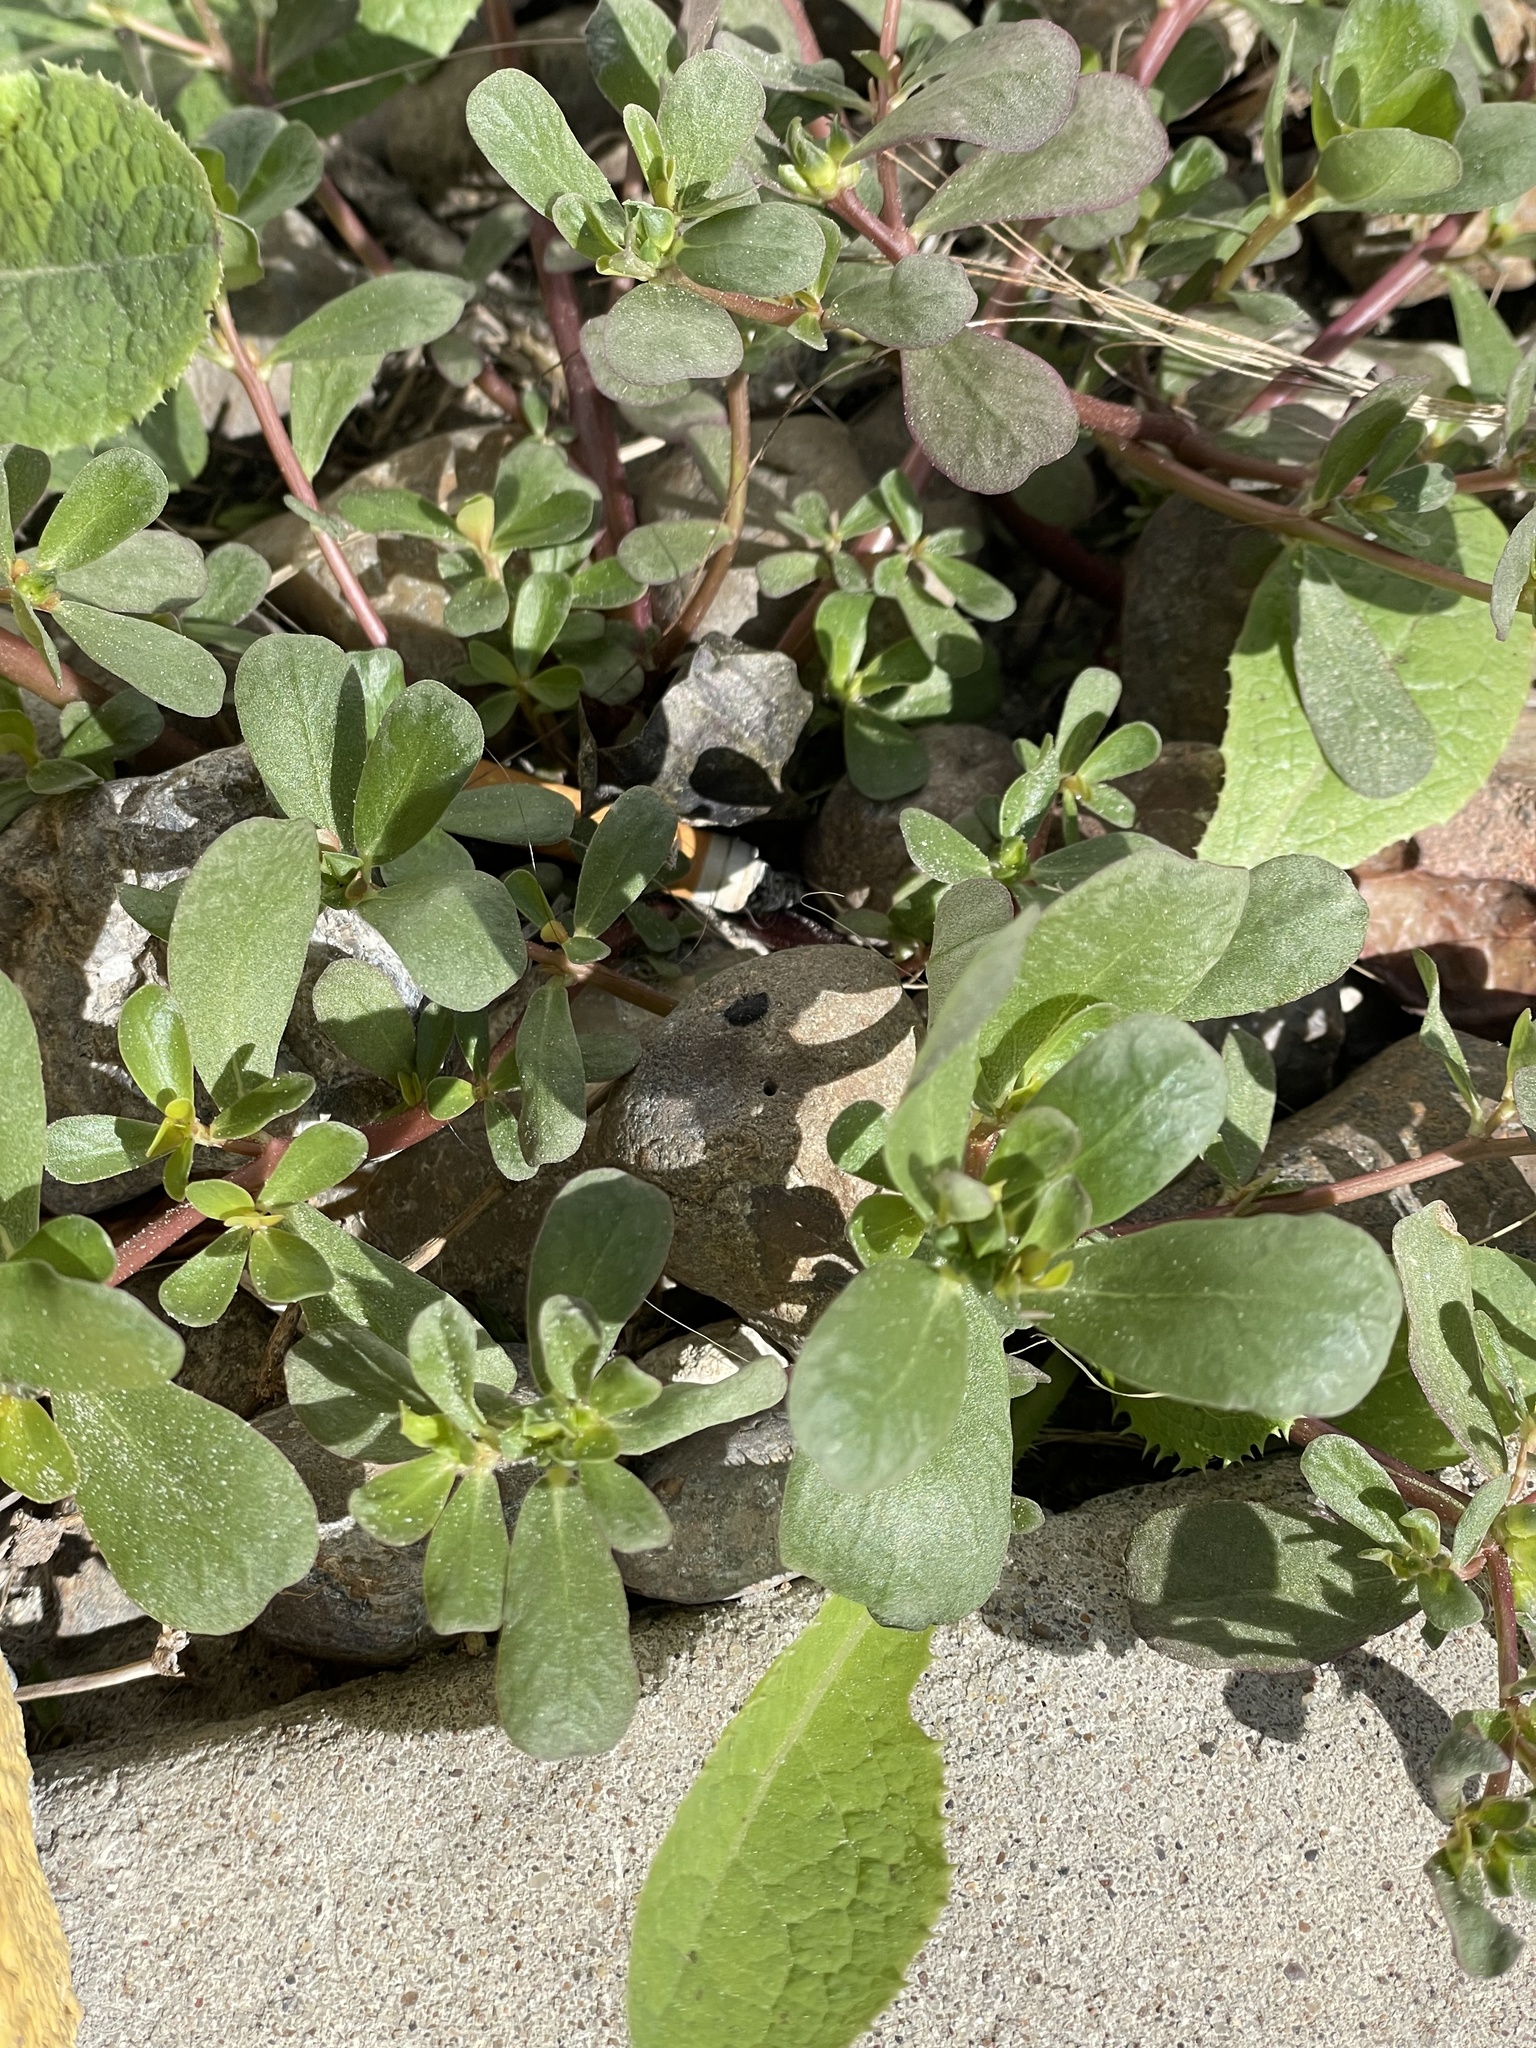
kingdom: Plantae
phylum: Tracheophyta
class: Magnoliopsida
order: Caryophyllales
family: Portulacaceae
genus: Portulaca
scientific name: Portulaca oleracea
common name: Common purslane
